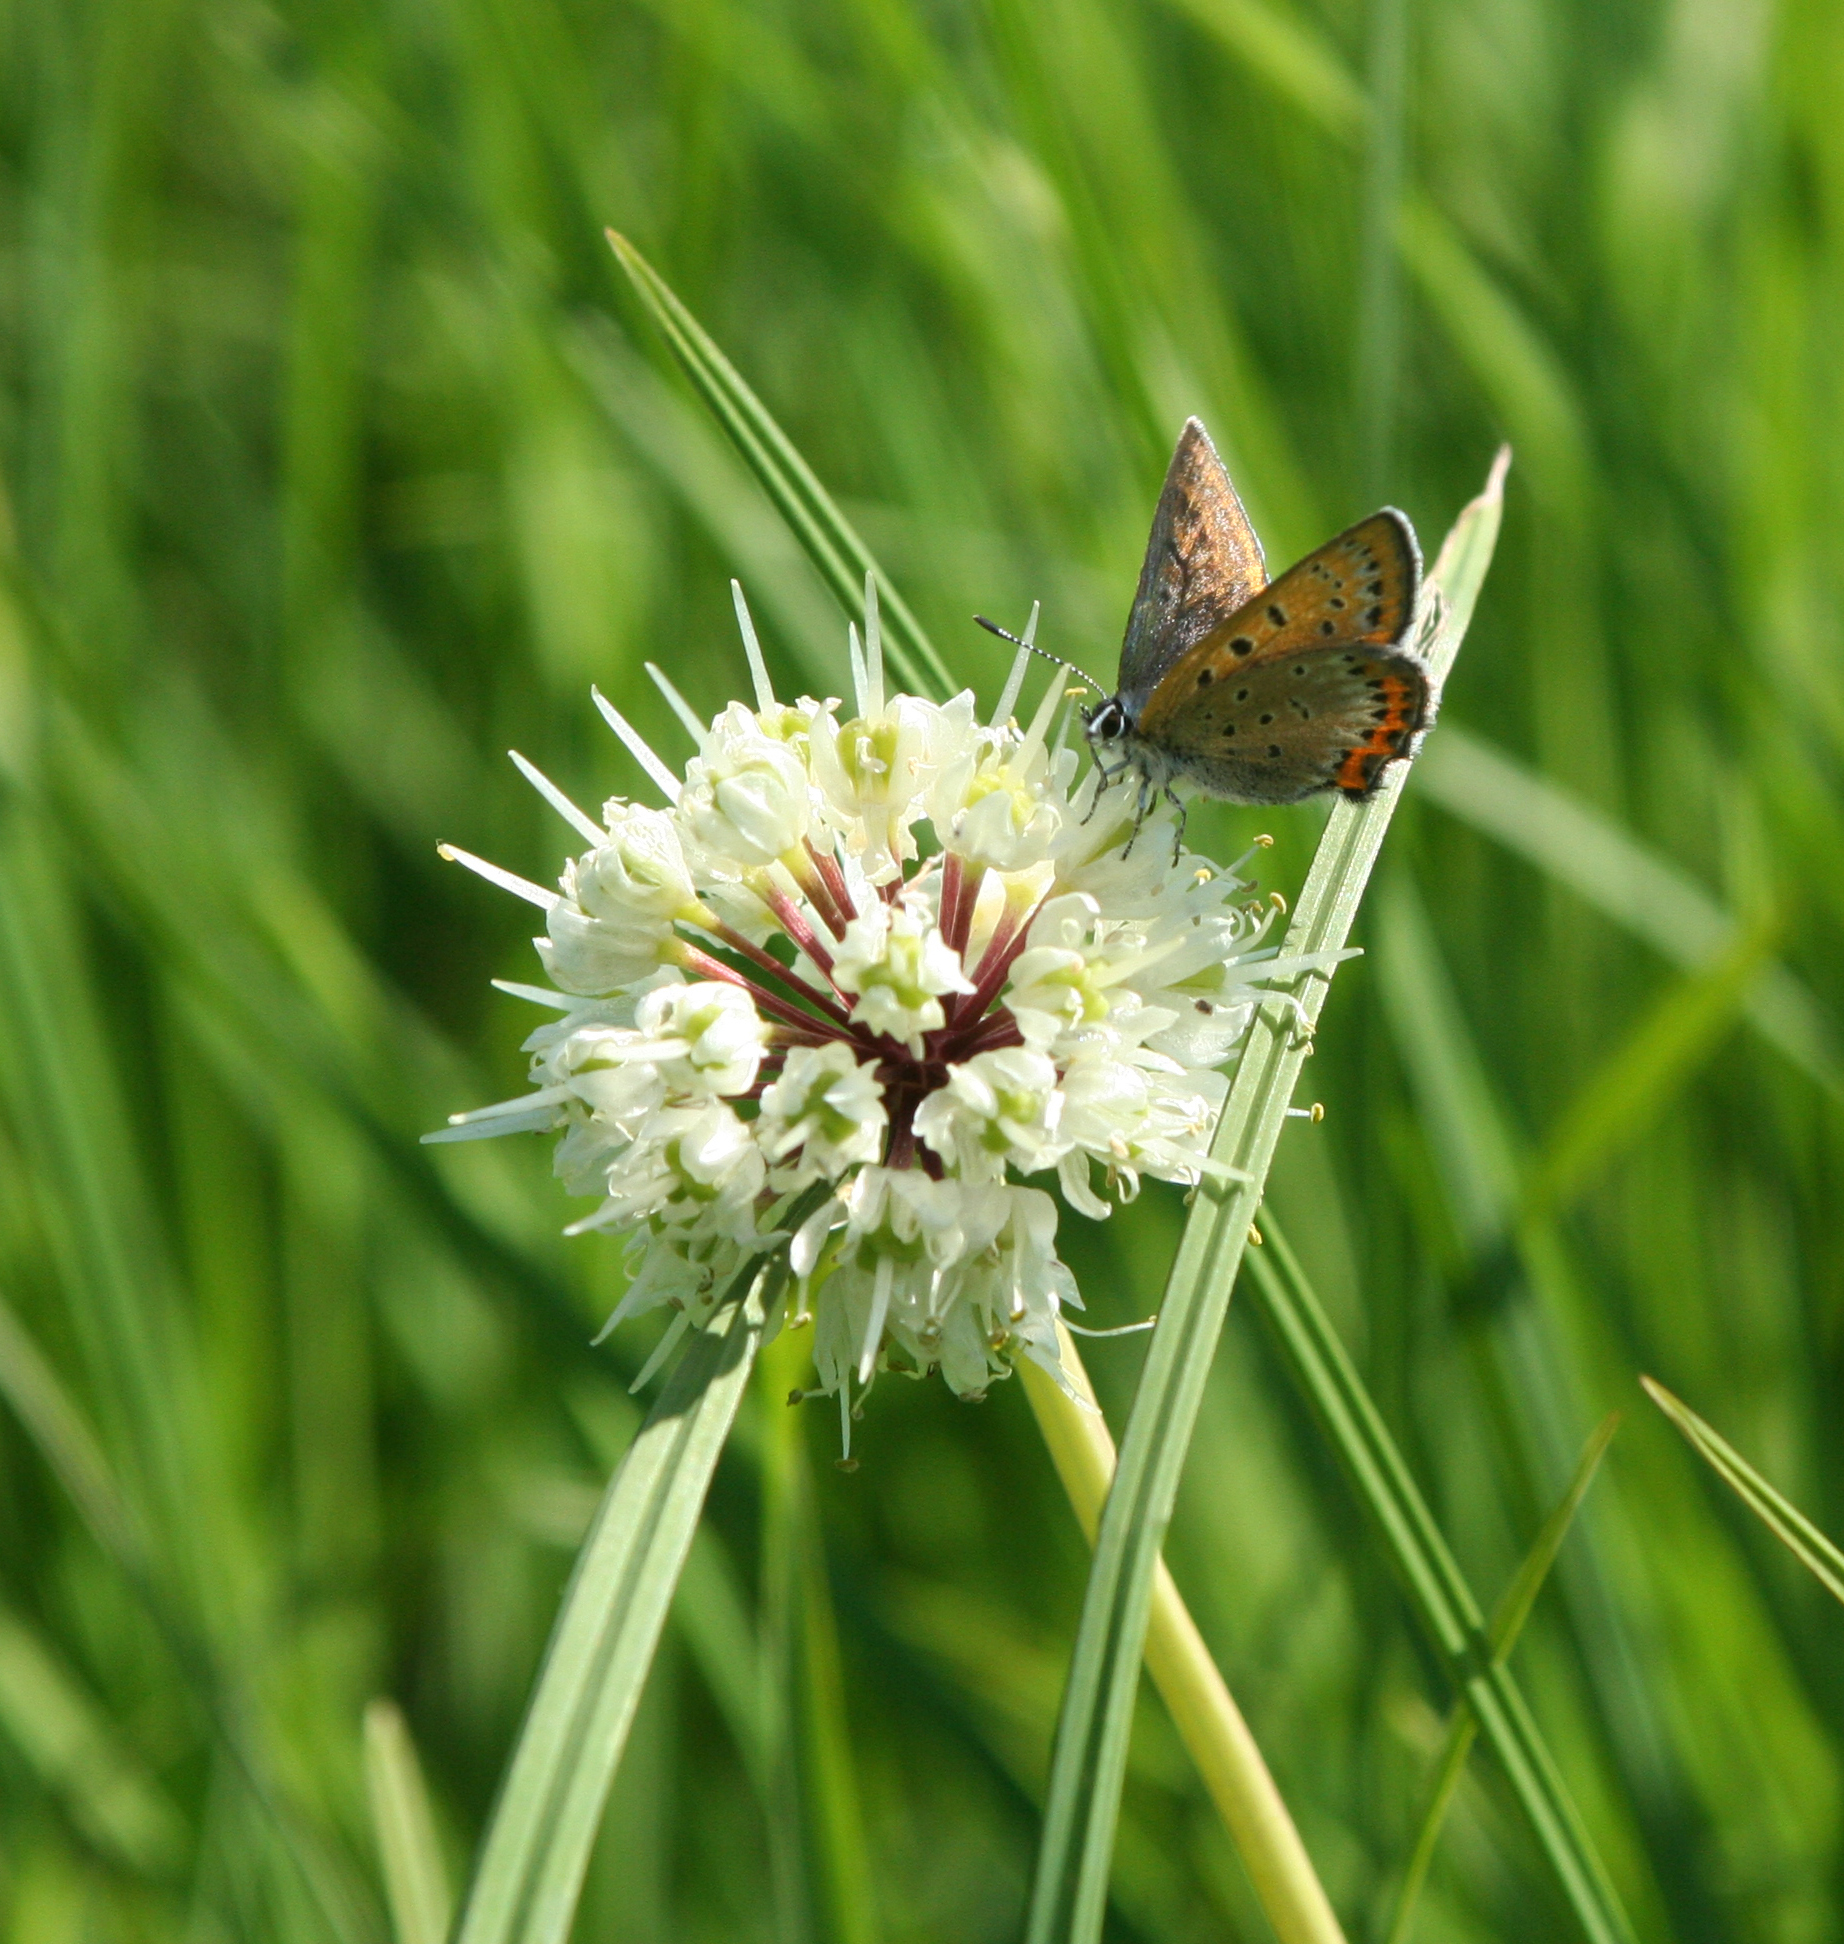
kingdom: Animalia
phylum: Arthropoda
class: Insecta
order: Lepidoptera
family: Lycaenidae
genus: Helleia
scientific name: Helleia helle
